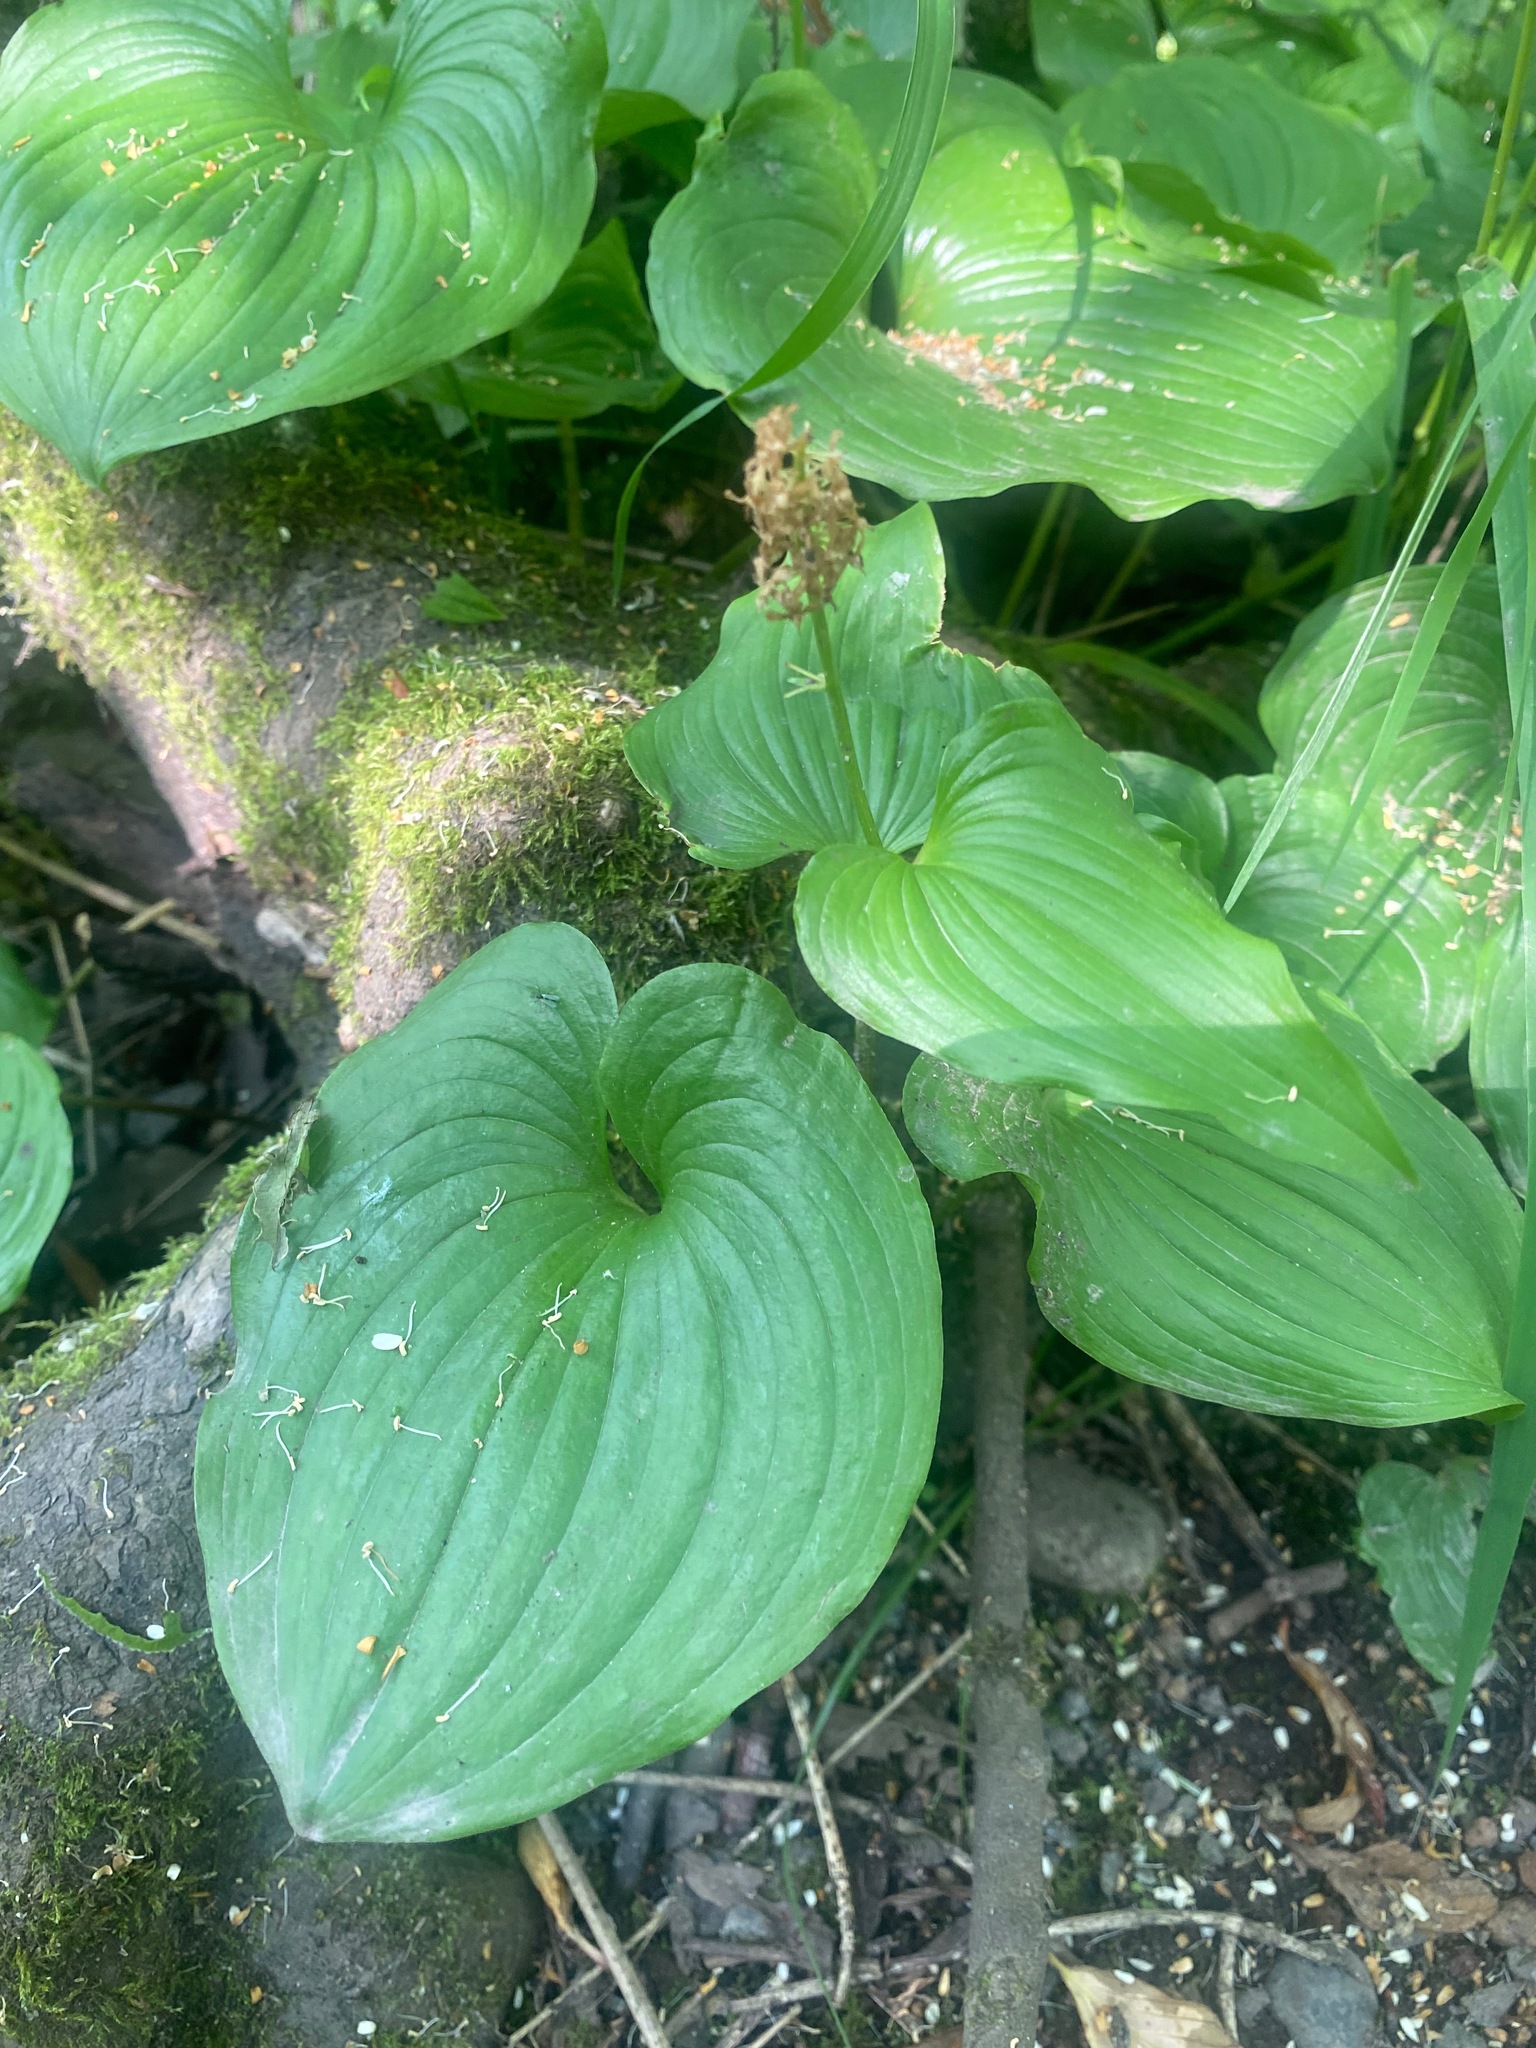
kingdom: Plantae
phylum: Tracheophyta
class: Liliopsida
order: Asparagales
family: Asparagaceae
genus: Maianthemum
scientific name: Maianthemum dilatatum
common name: False lily-of-the-valley
